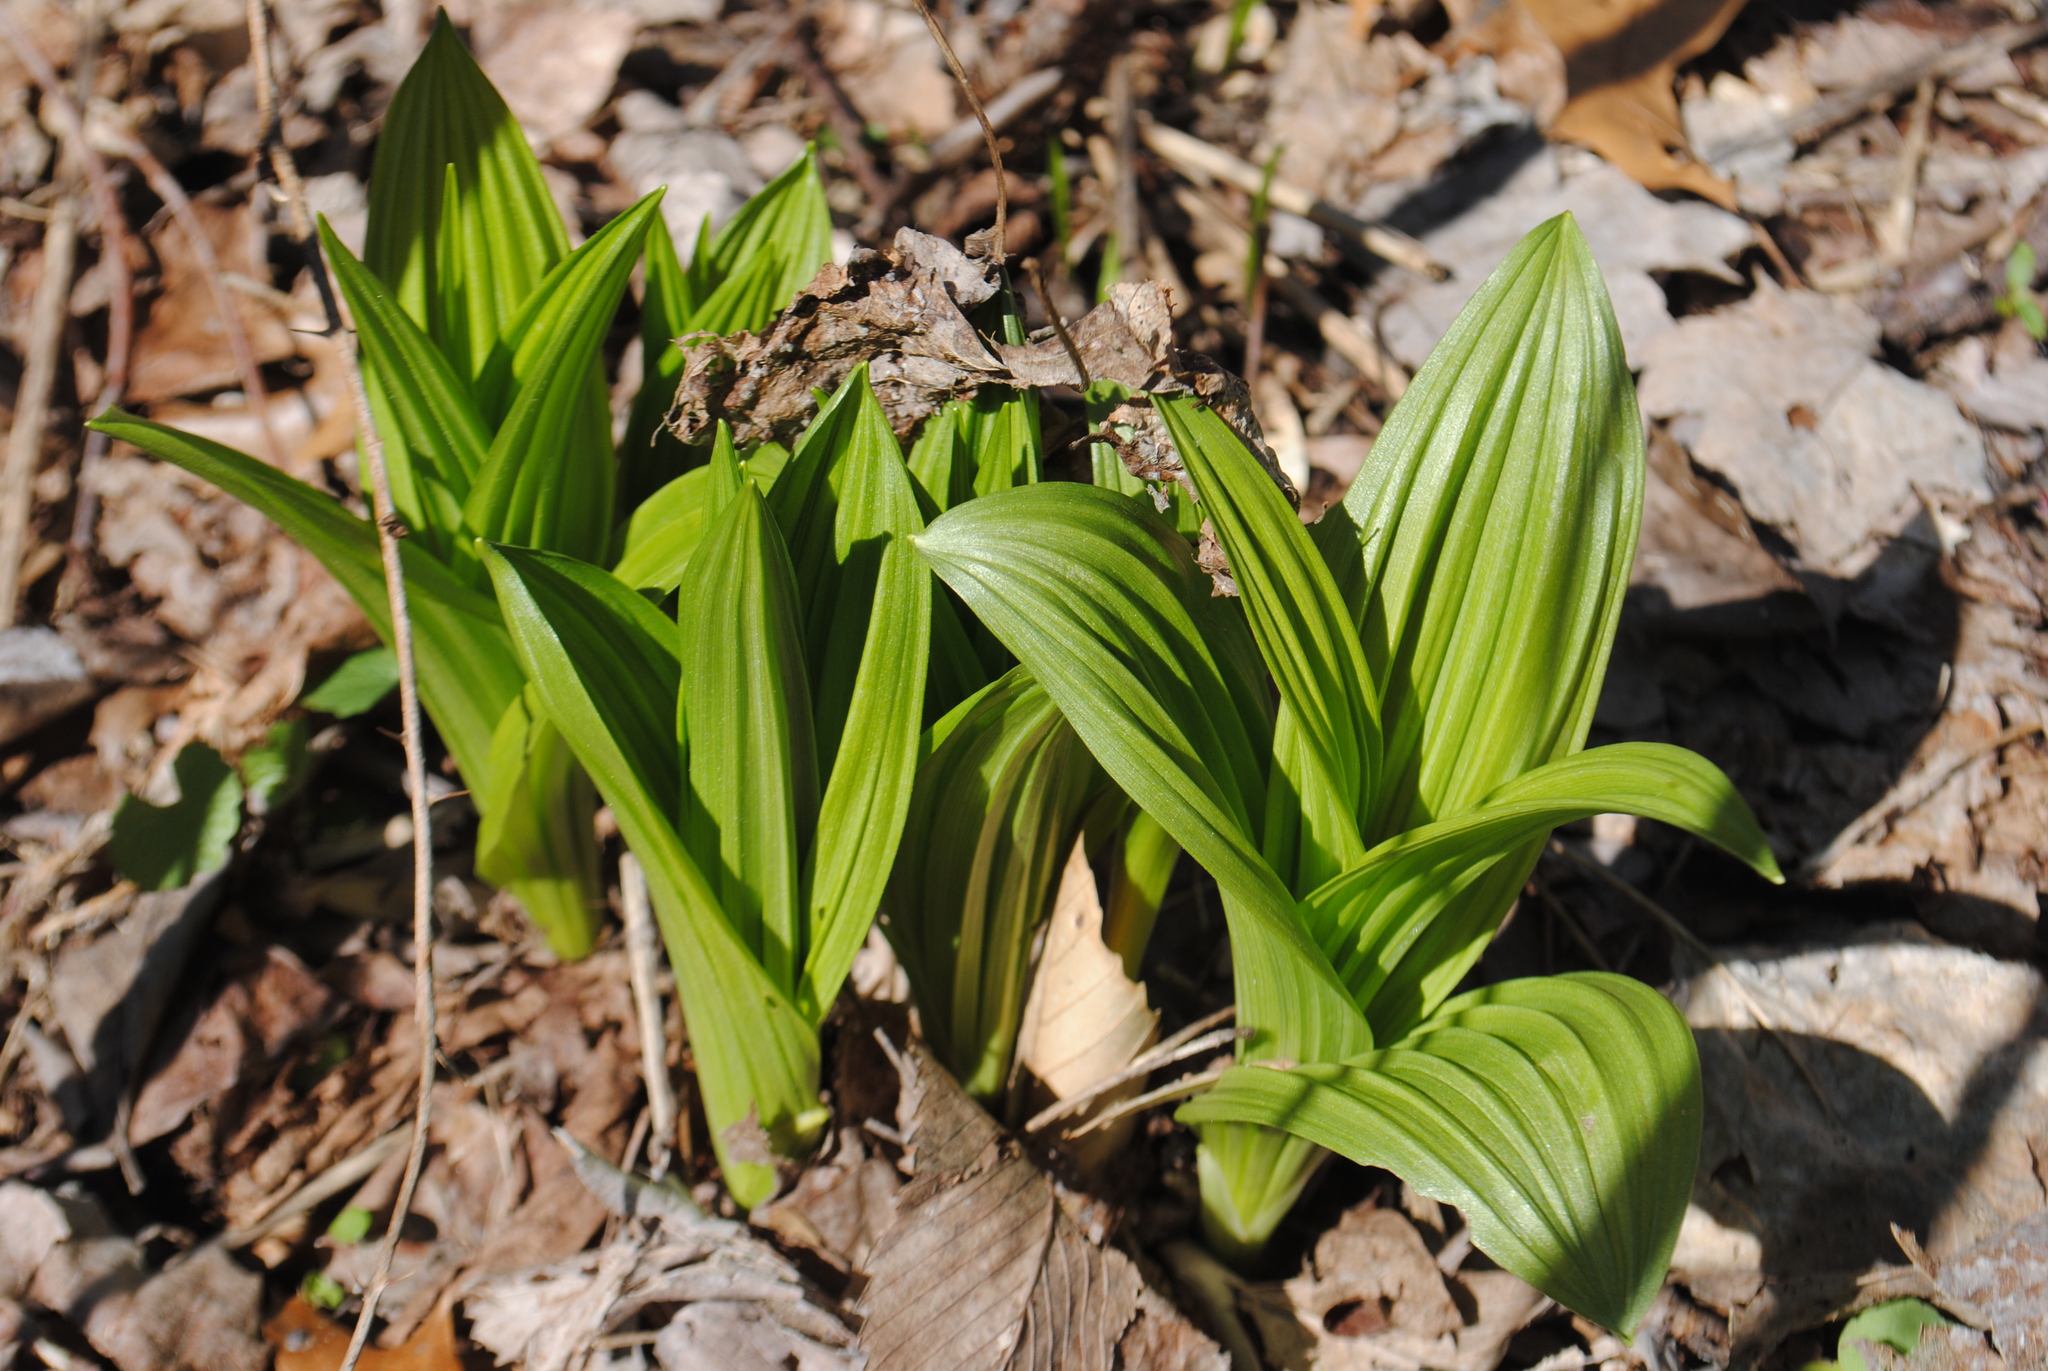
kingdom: Plantae
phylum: Tracheophyta
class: Liliopsida
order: Liliales
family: Melanthiaceae
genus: Veratrum
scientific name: Veratrum viride
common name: American false hellebore
